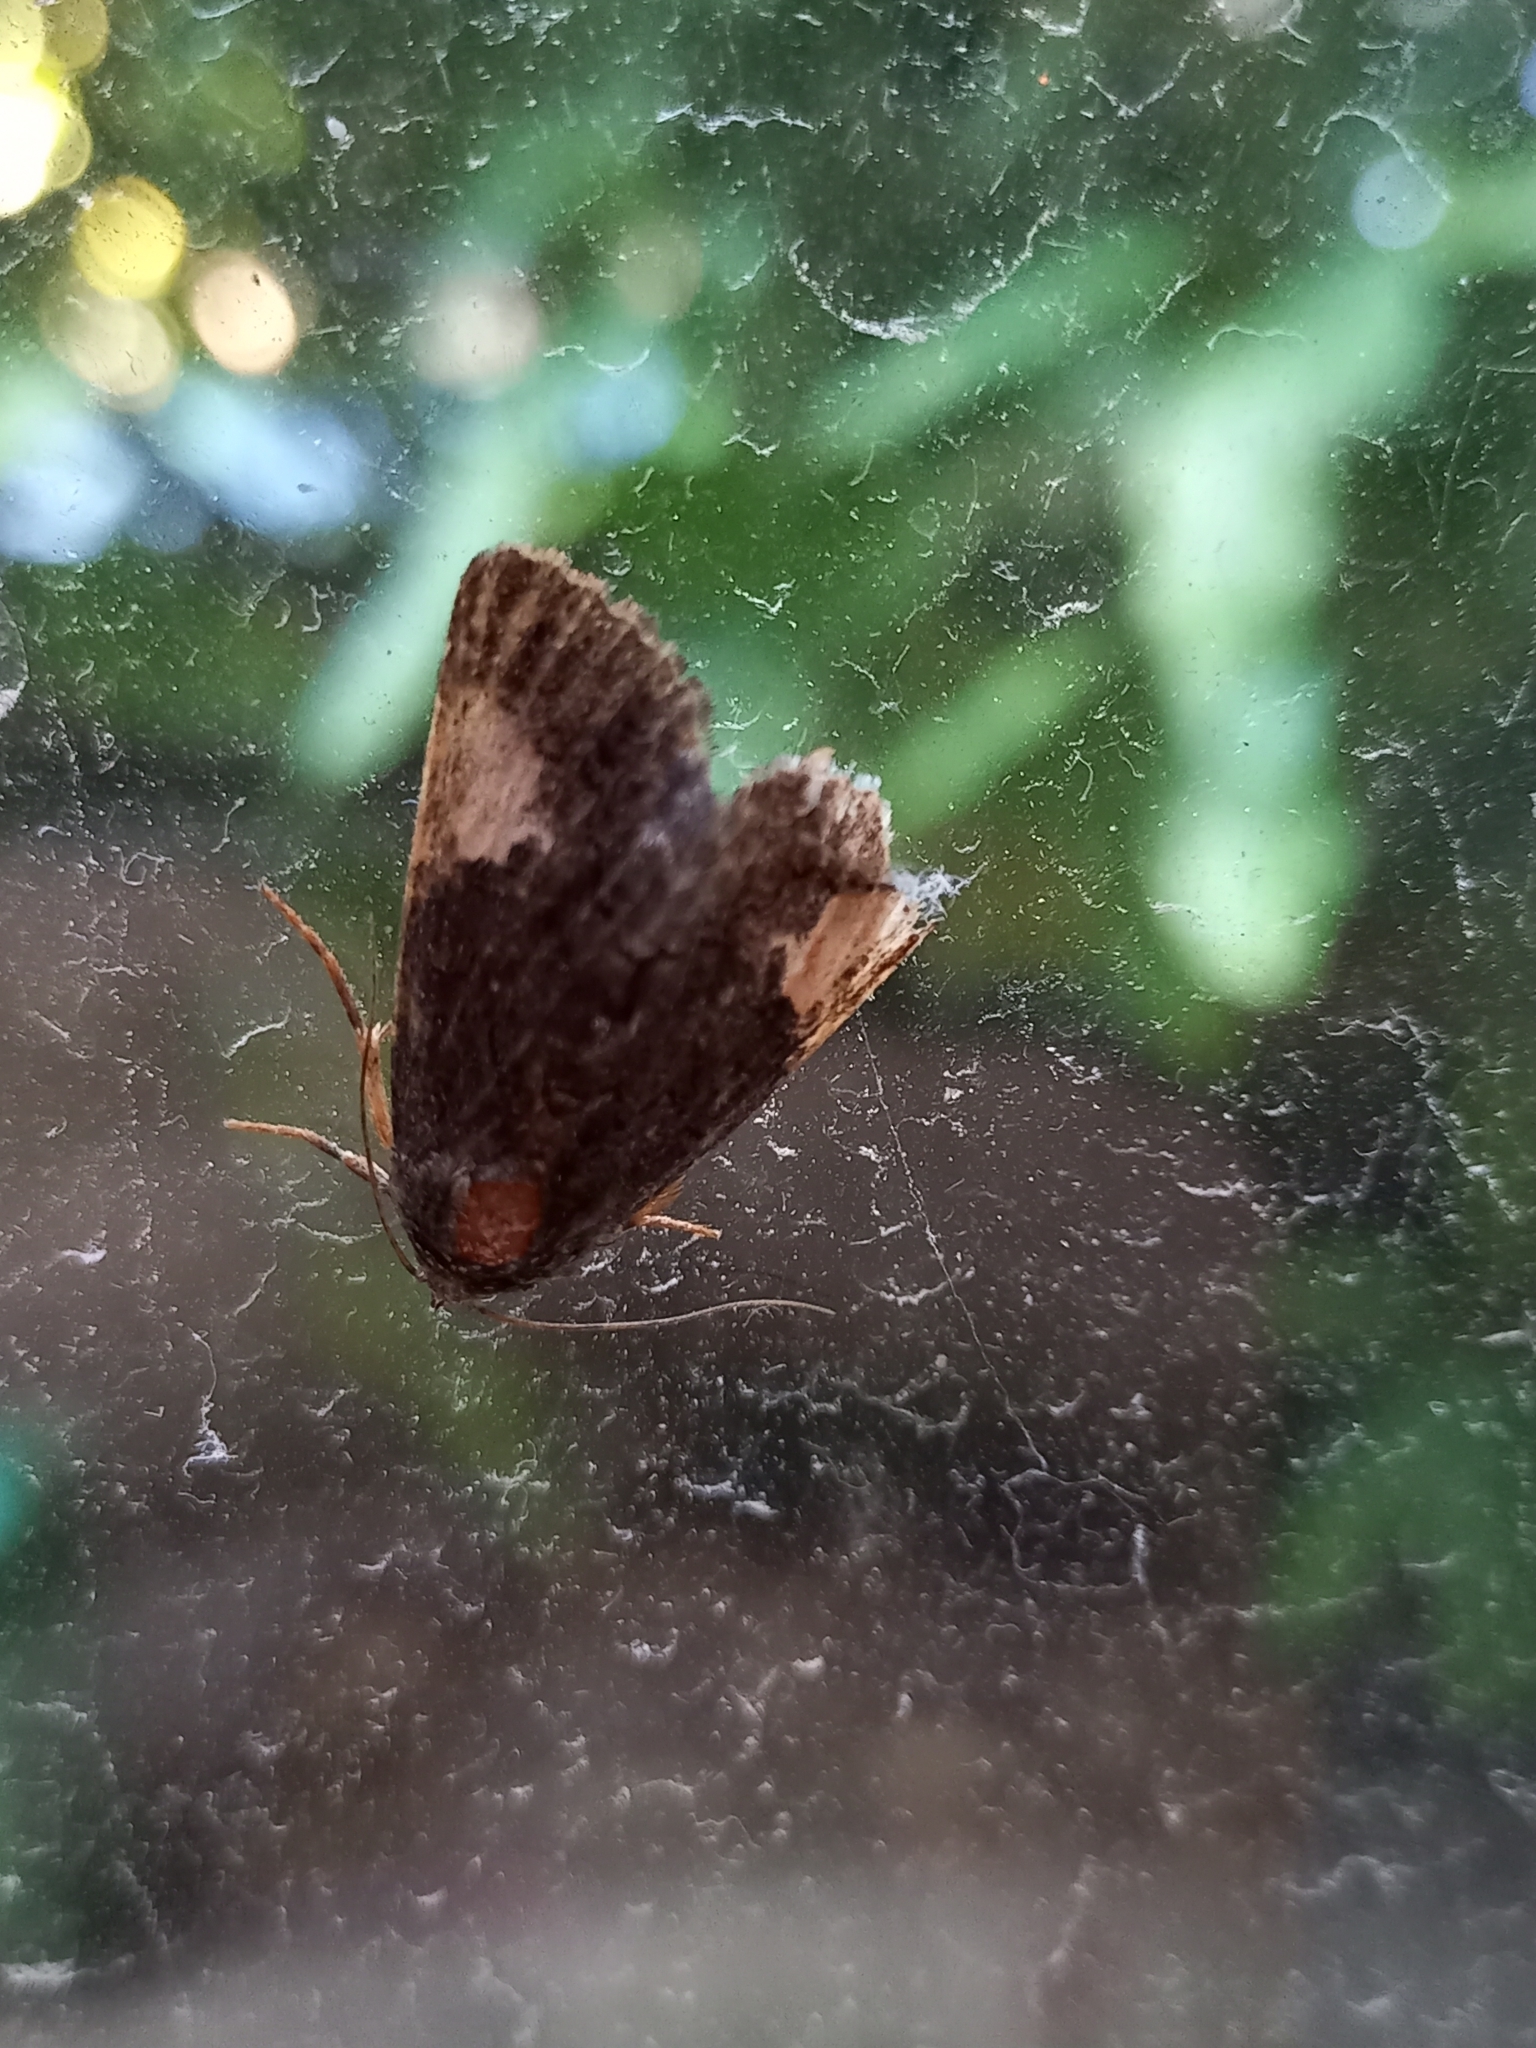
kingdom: Animalia
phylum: Arthropoda
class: Insecta
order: Lepidoptera
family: Noctuidae
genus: Aedia
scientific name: Aedia funesta
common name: The druid
